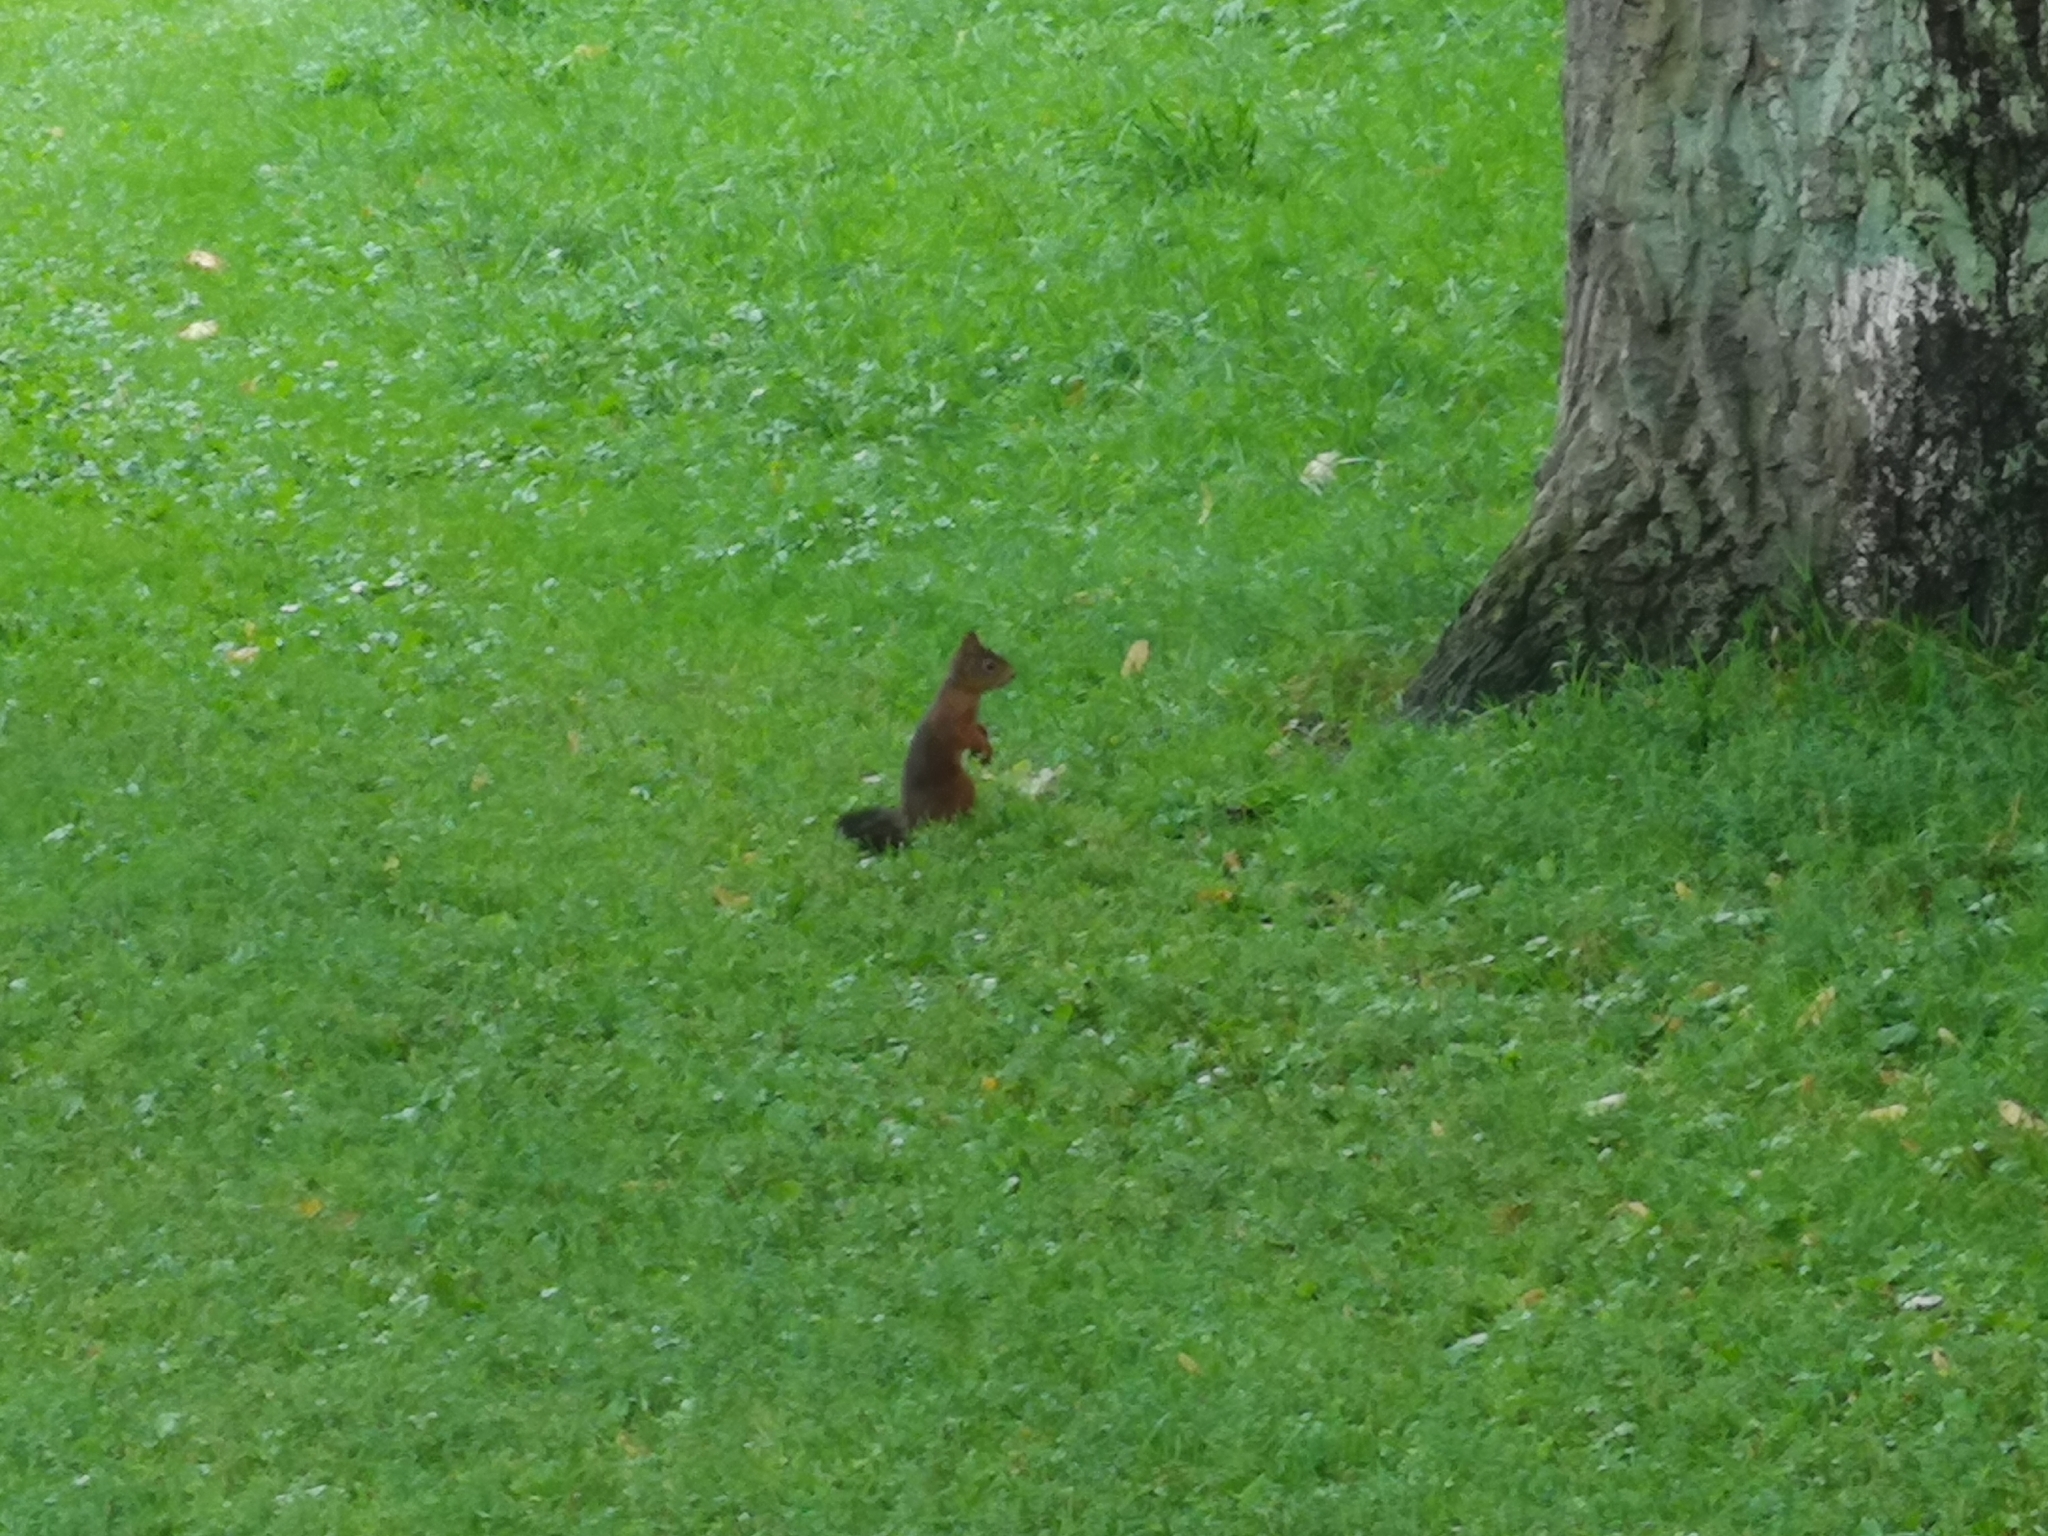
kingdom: Animalia
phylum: Chordata
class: Mammalia
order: Rodentia
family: Sciuridae
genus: Sciurus
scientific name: Sciurus vulgaris
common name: Eurasian red squirrel
